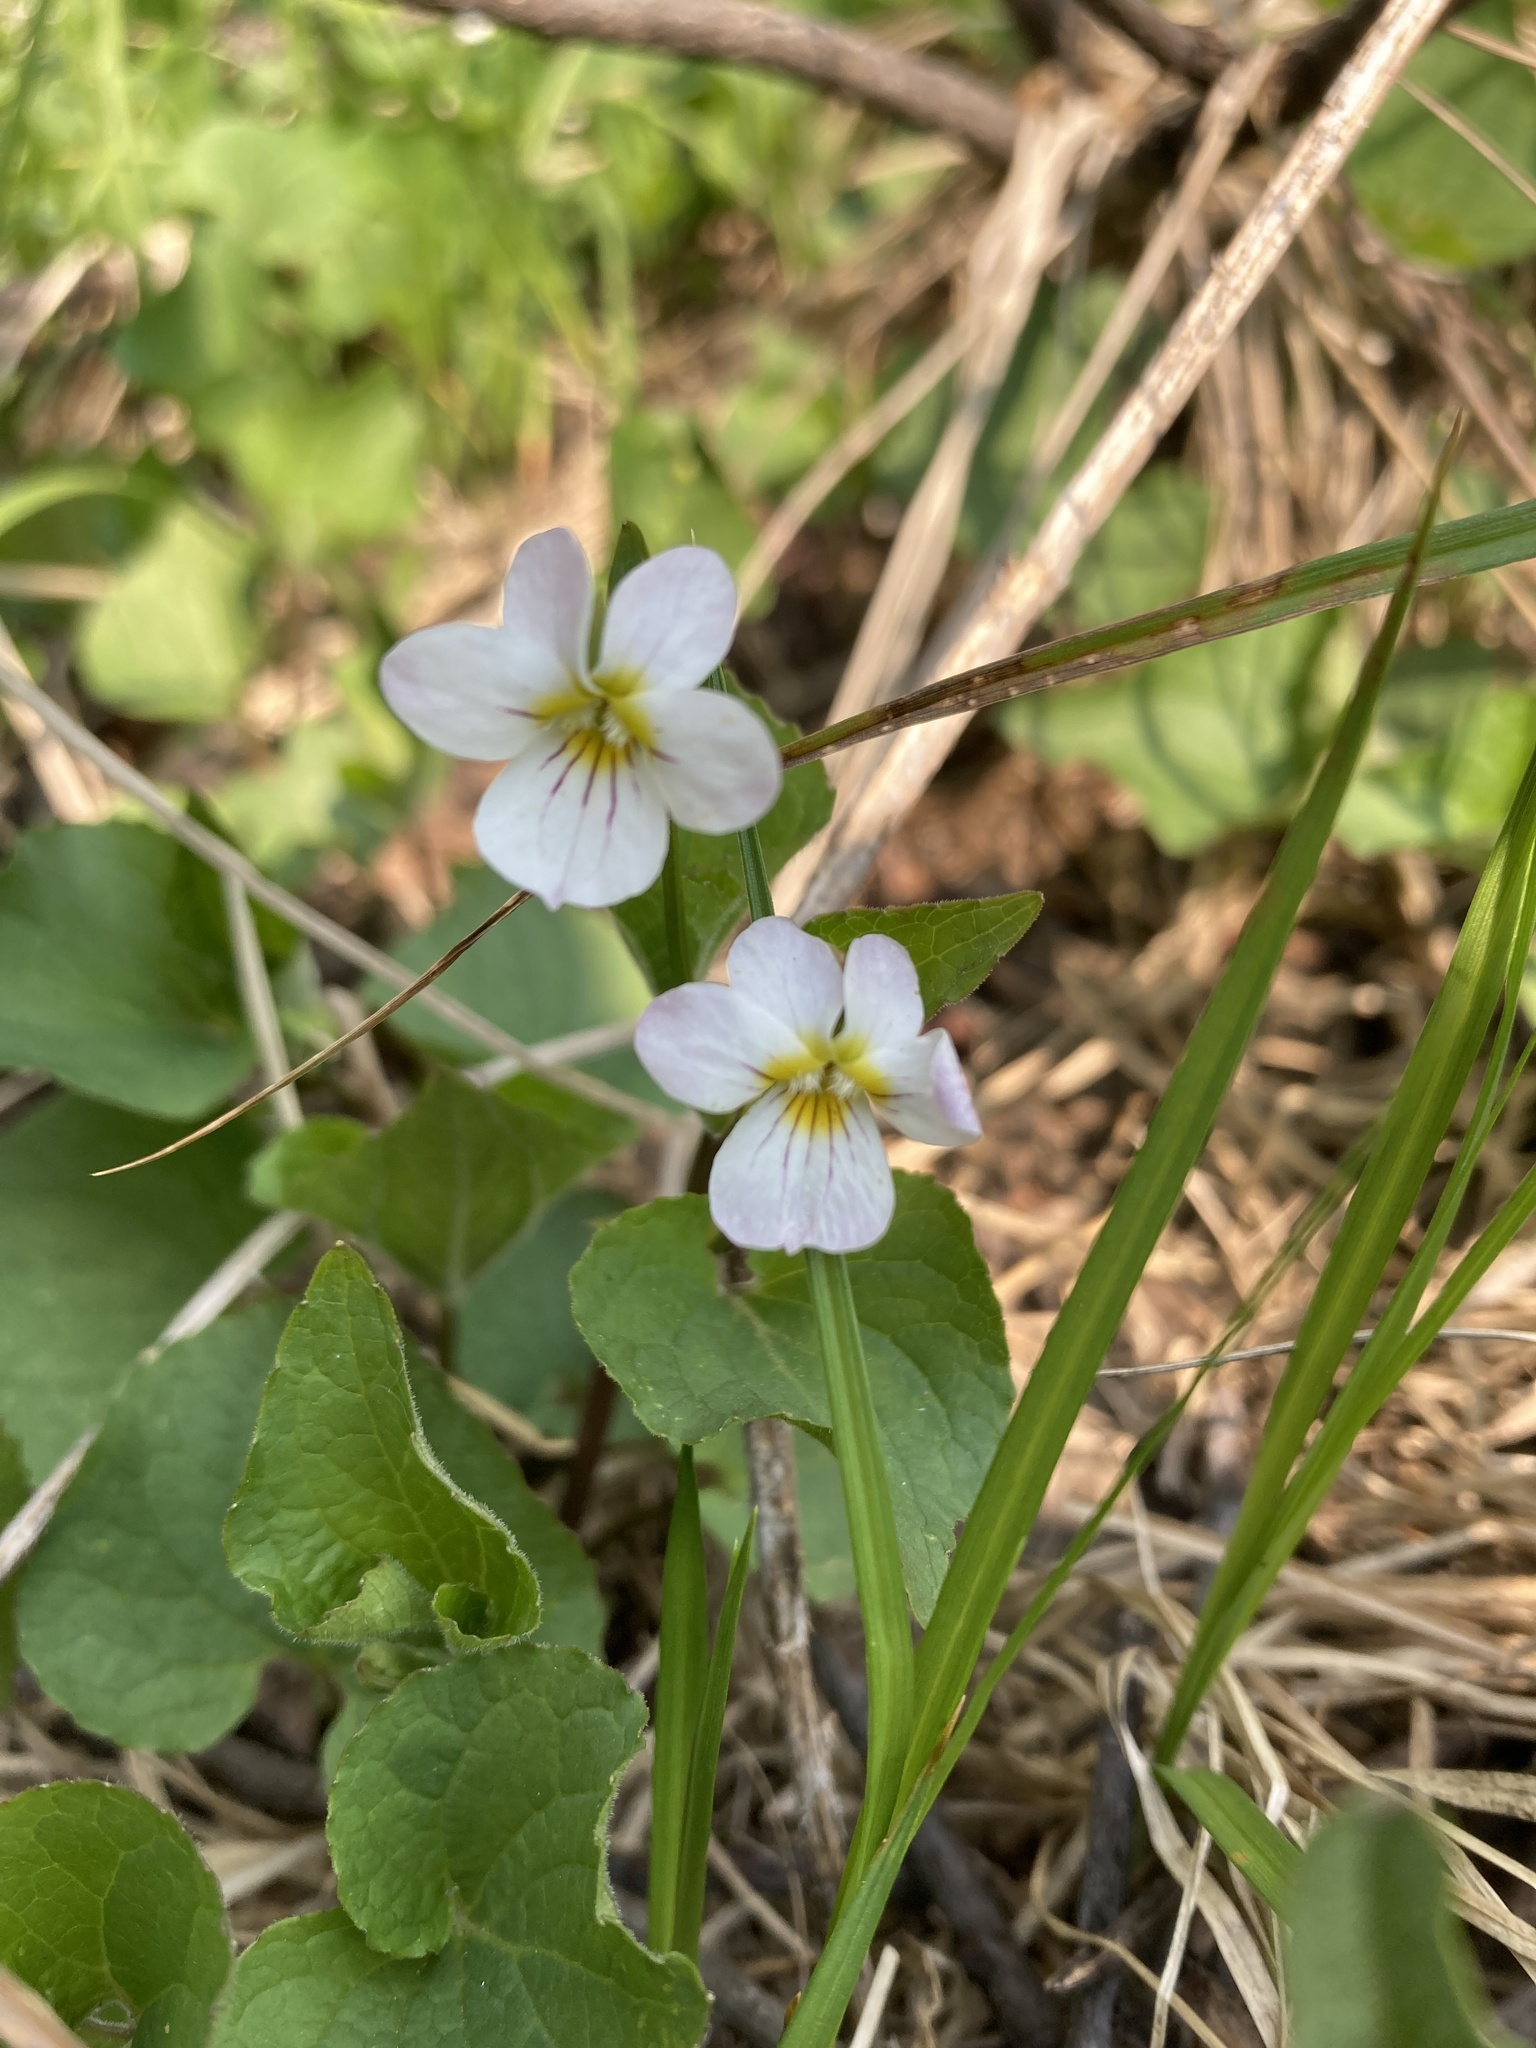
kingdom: Plantae
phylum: Tracheophyta
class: Magnoliopsida
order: Malpighiales
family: Violaceae
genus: Viola
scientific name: Viola canadensis
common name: Canada violet
